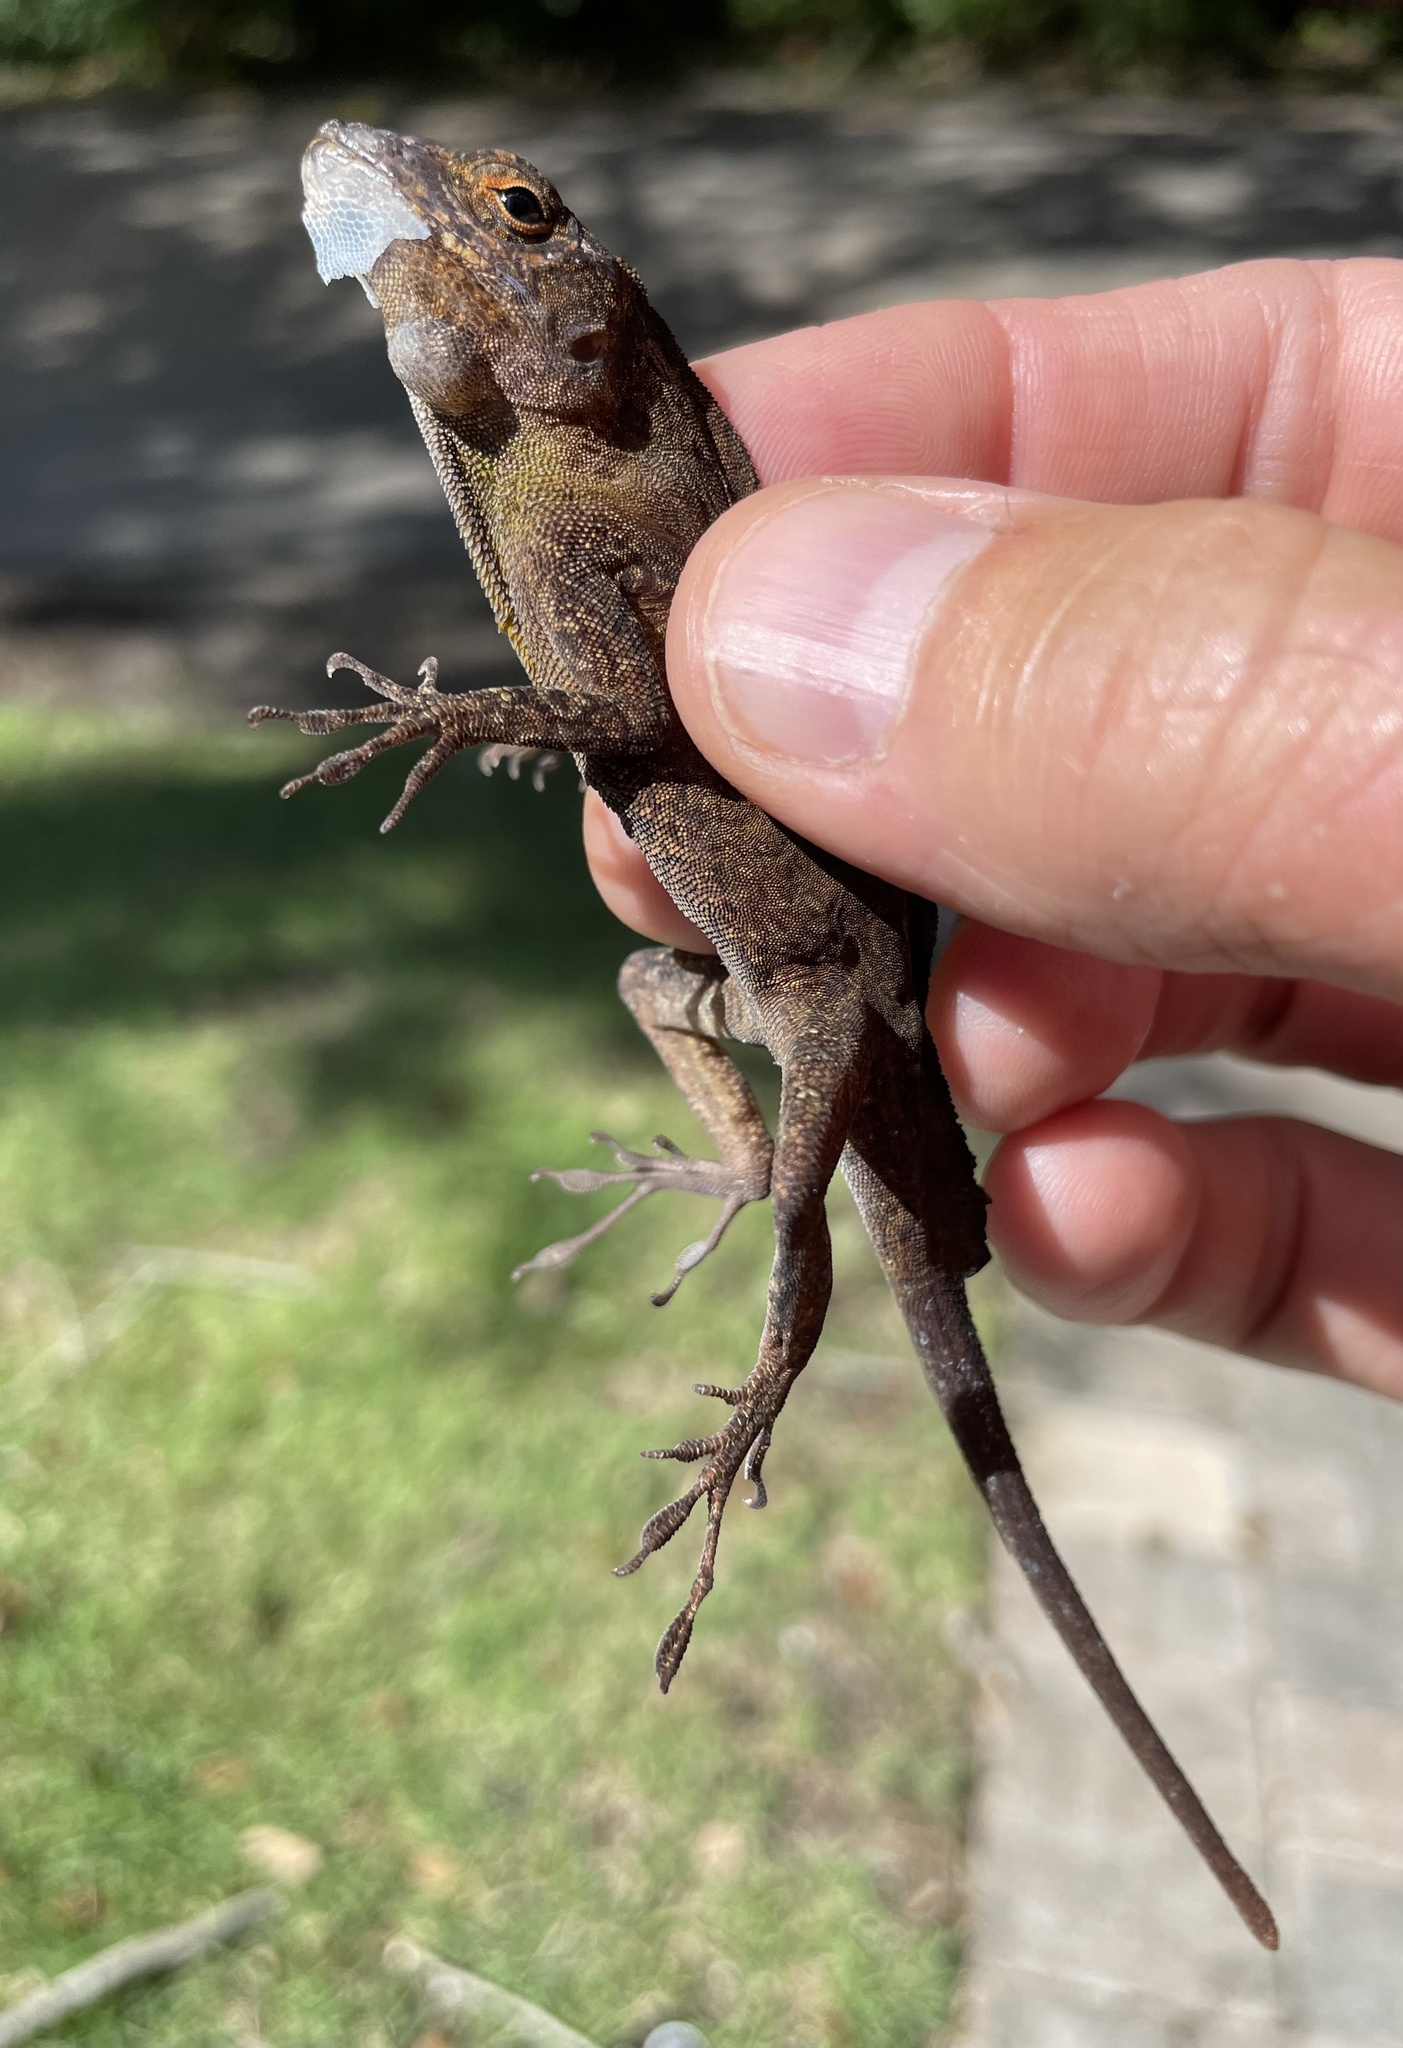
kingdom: Animalia
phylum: Chordata
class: Squamata
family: Dactyloidae
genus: Anolis
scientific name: Anolis cristatellus
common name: Crested anole
